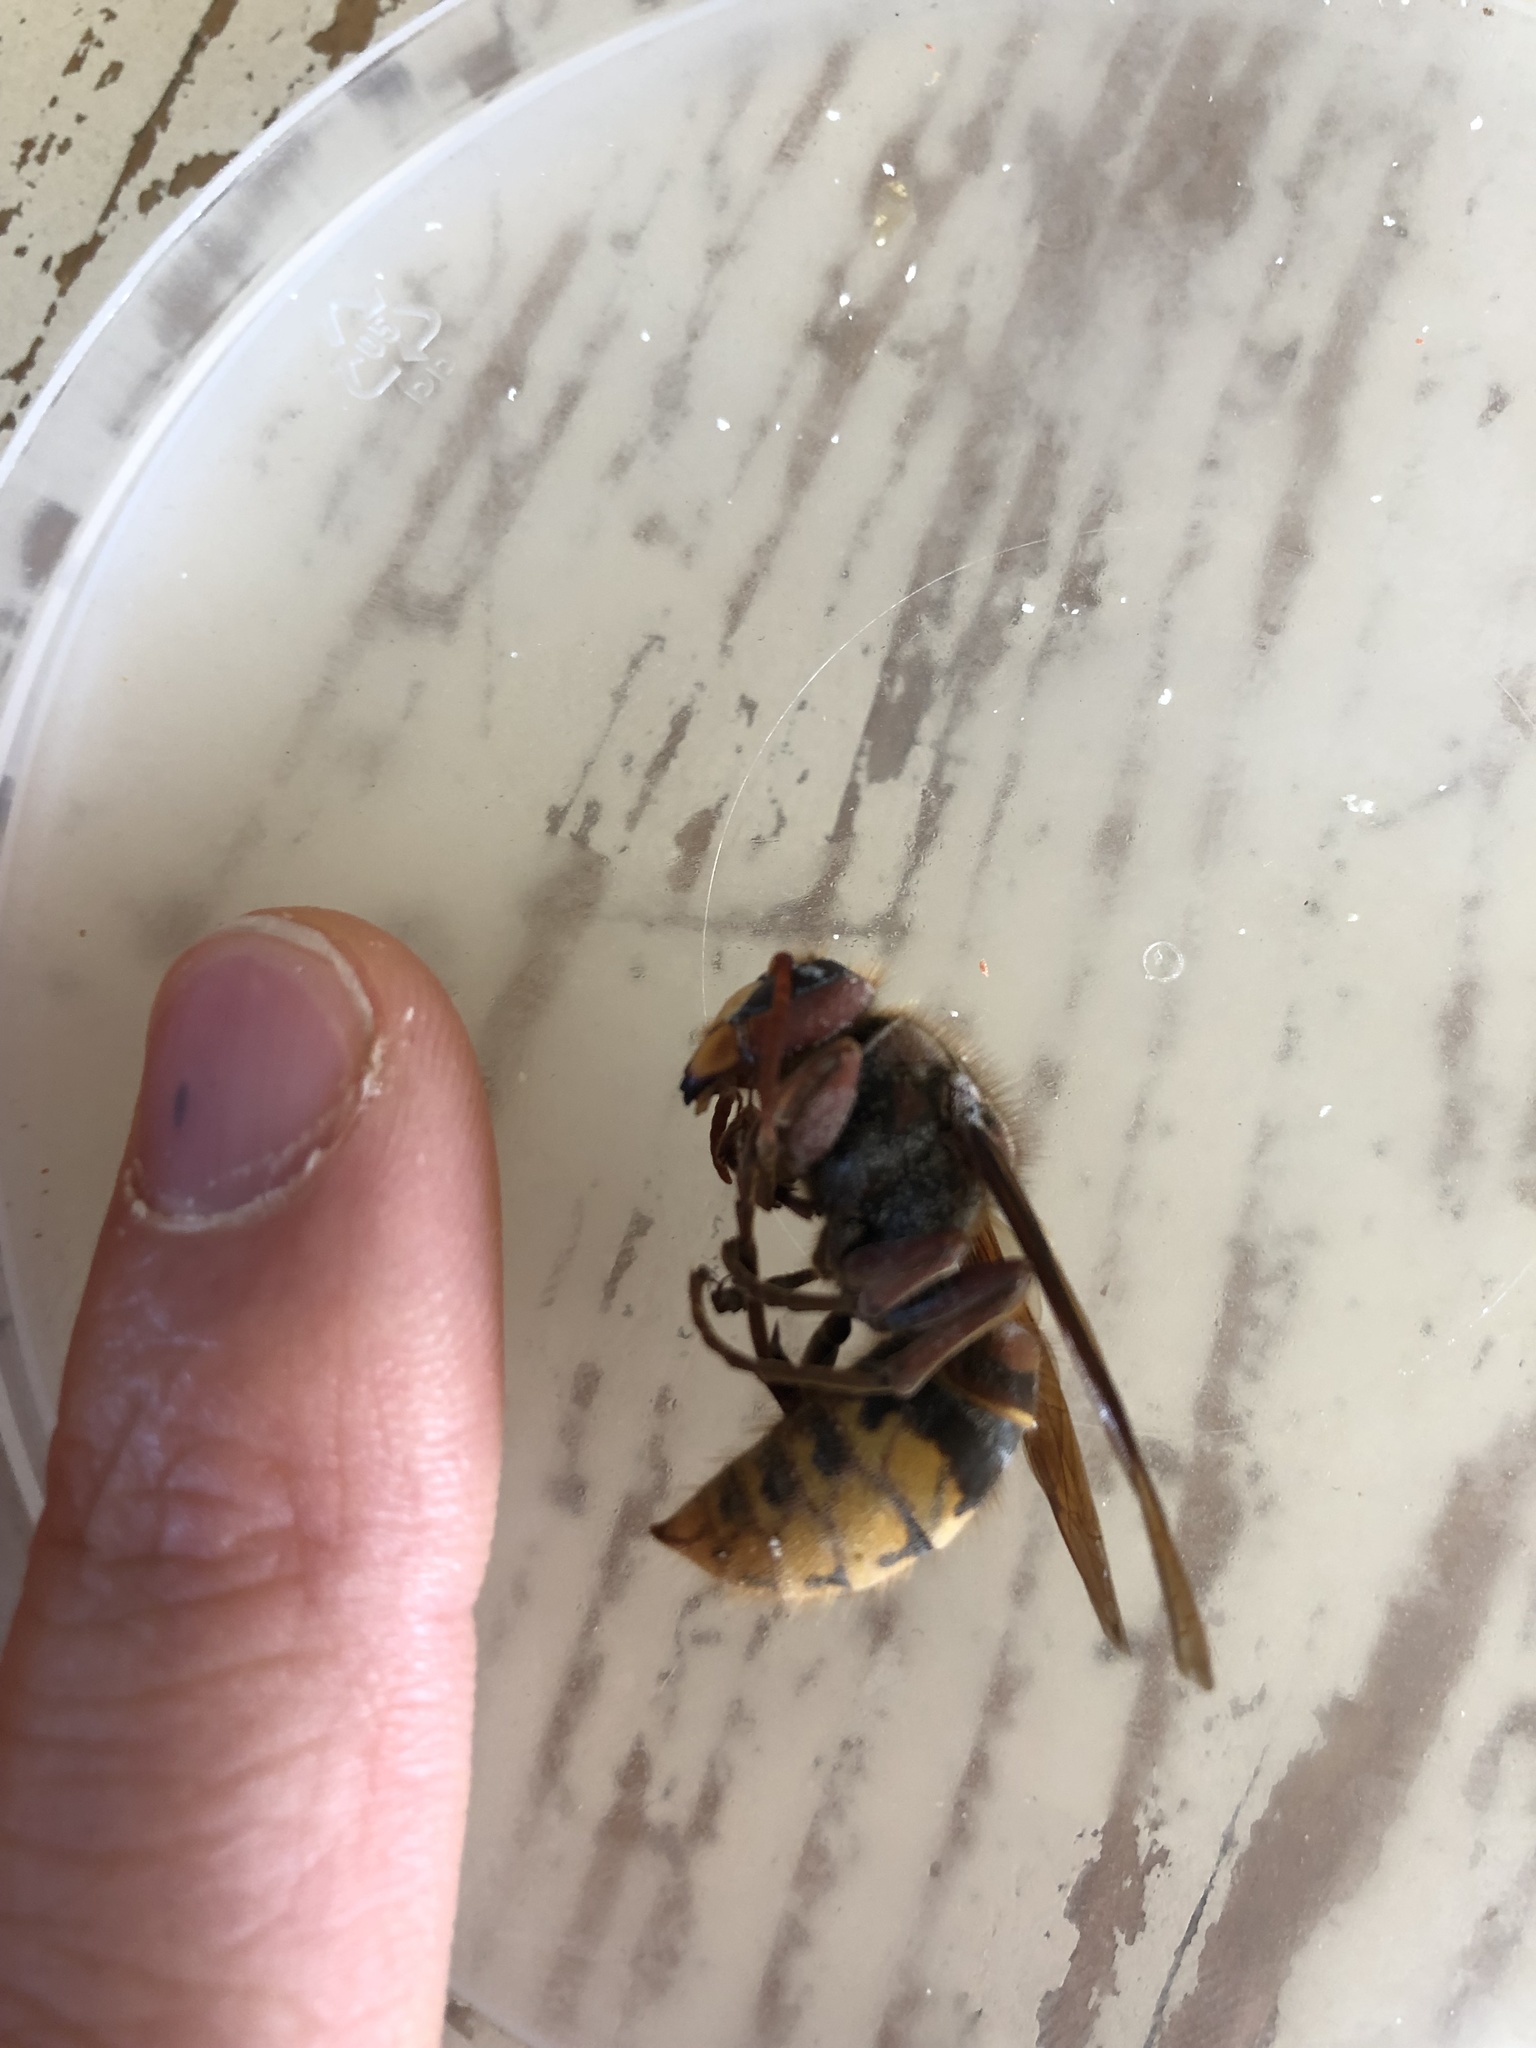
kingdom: Animalia
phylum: Arthropoda
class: Insecta
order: Hymenoptera
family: Vespidae
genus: Vespa
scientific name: Vespa crabro
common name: Hornet
